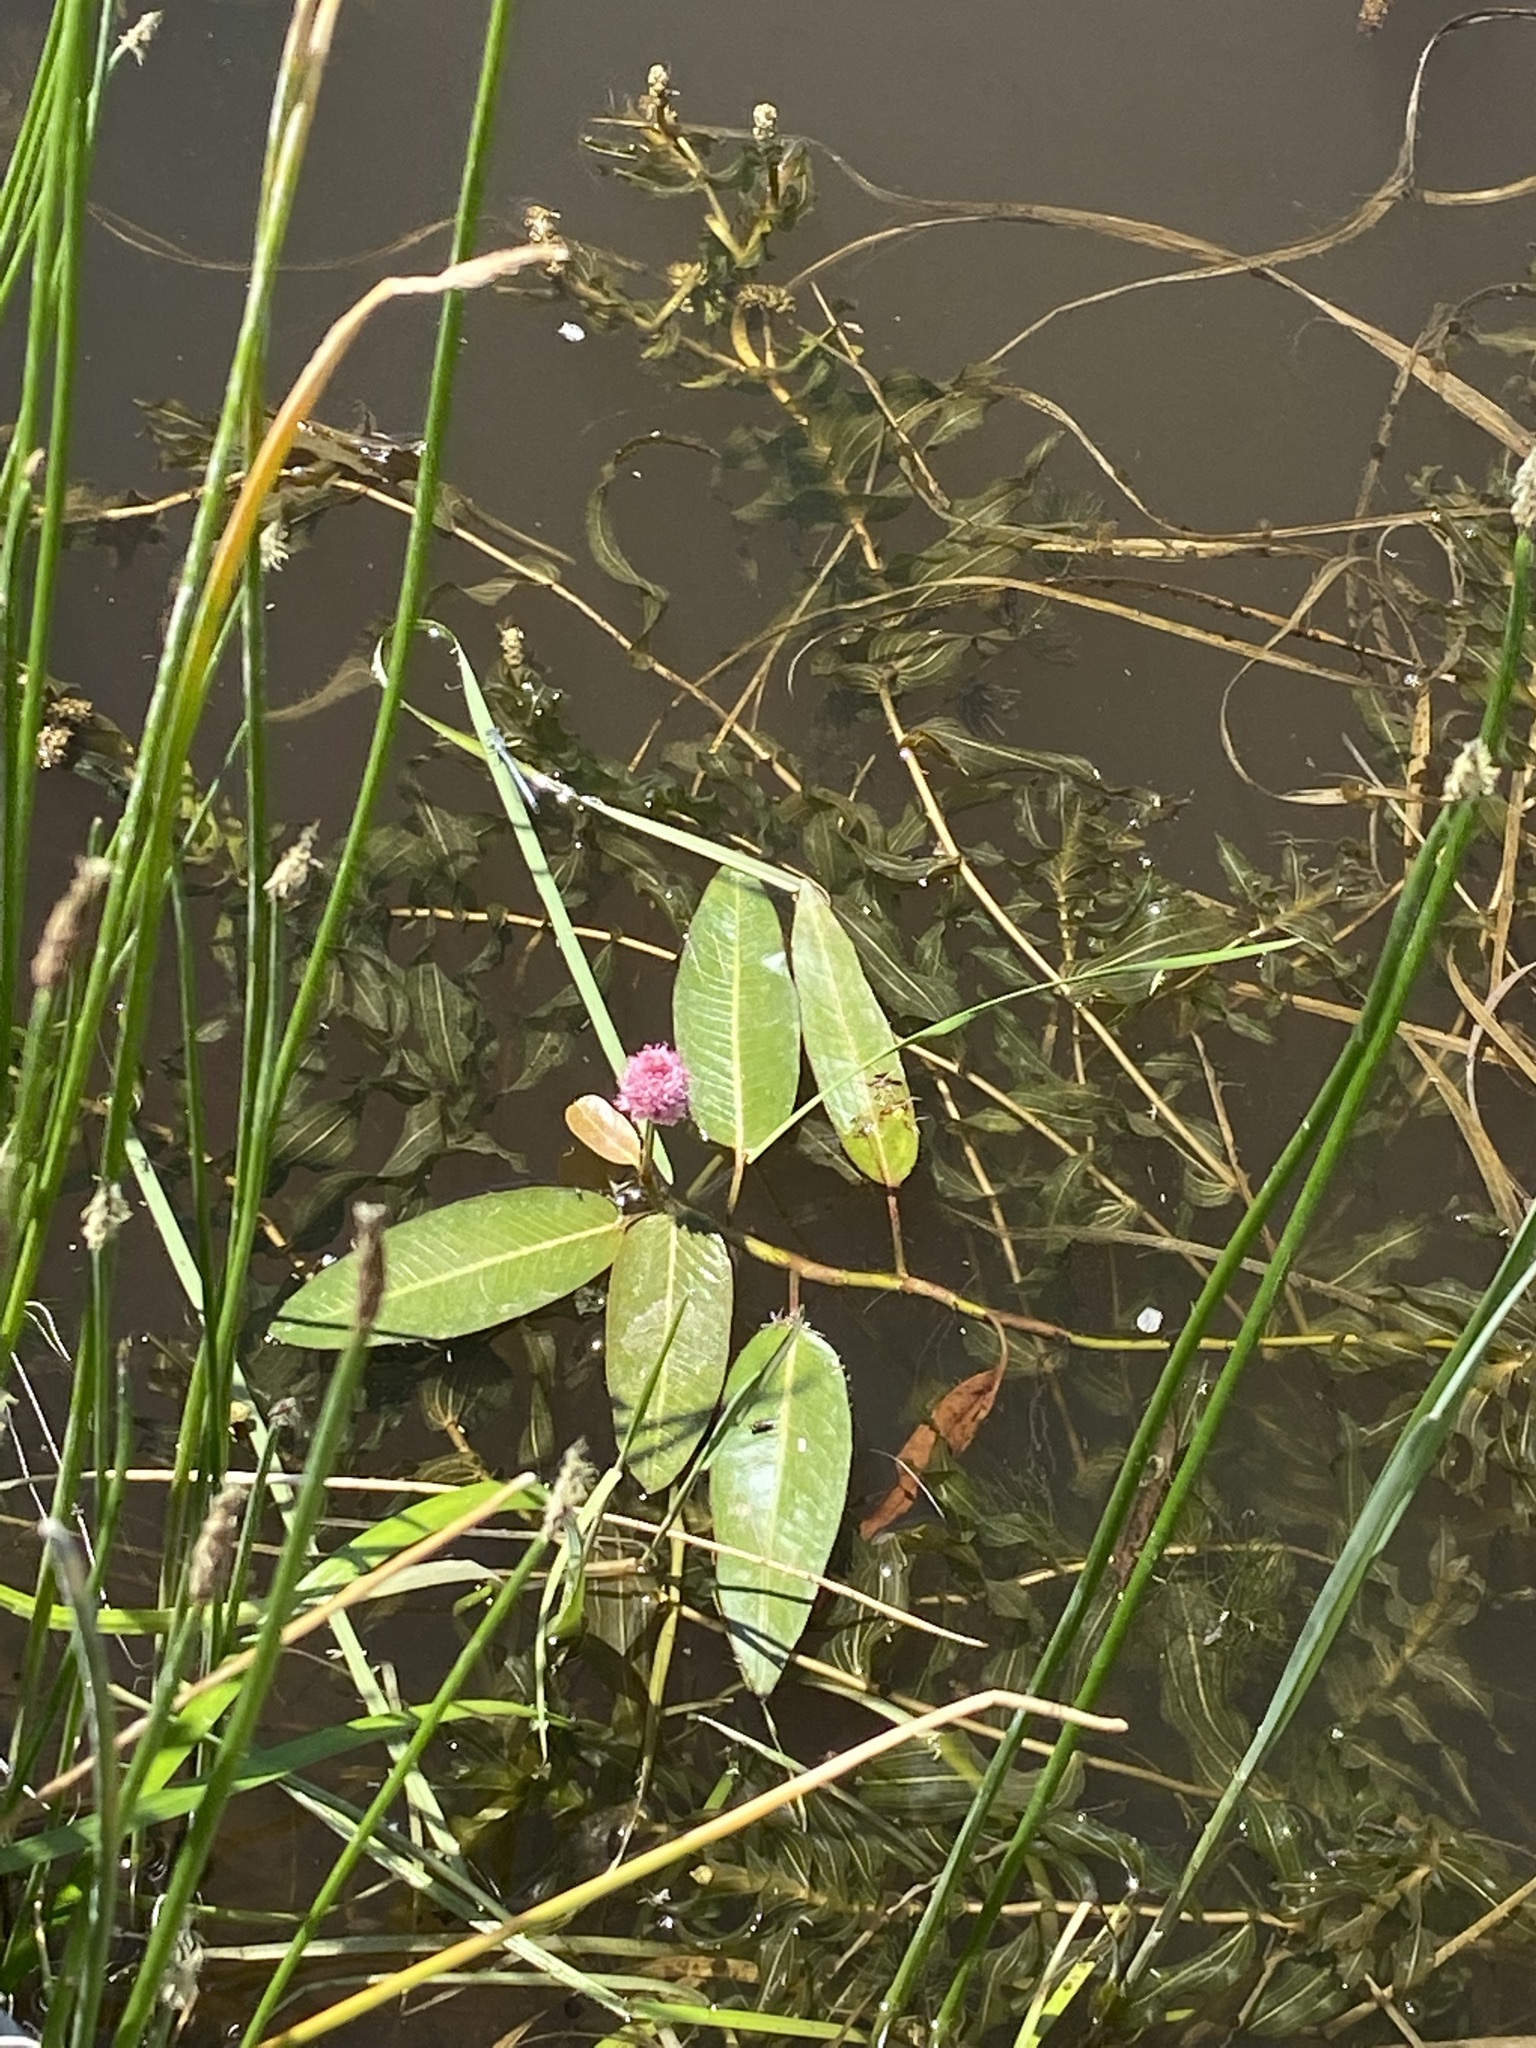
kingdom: Plantae
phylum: Tracheophyta
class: Magnoliopsida
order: Caryophyllales
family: Polygonaceae
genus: Persicaria
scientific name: Persicaria amphibia
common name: Amphibious bistort
